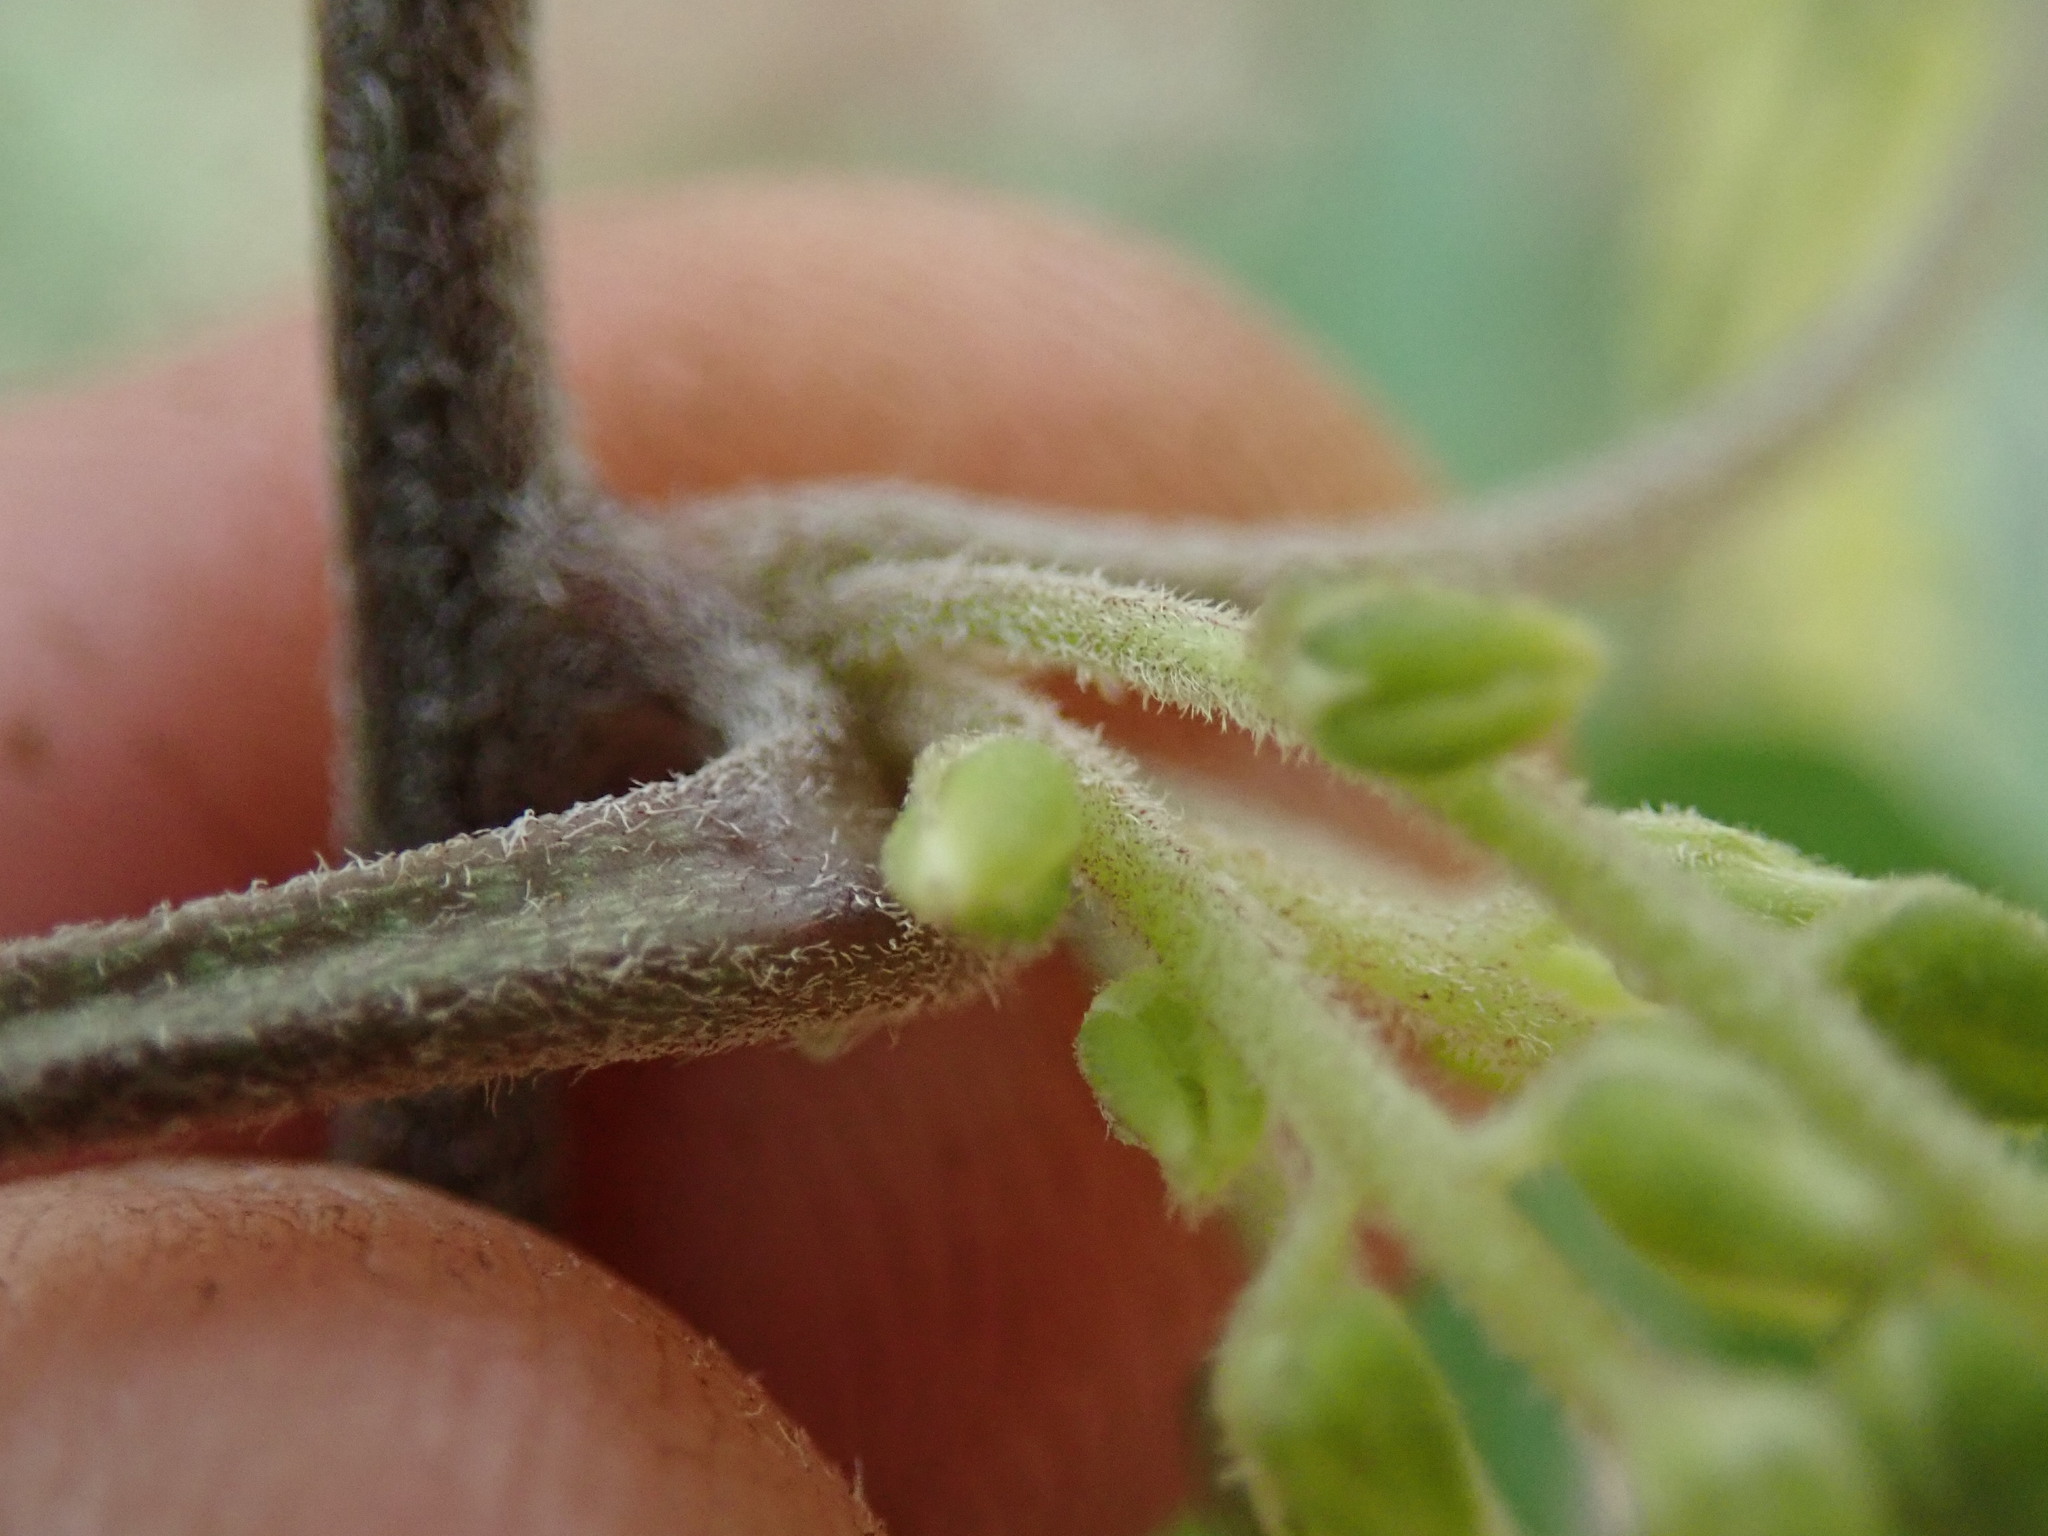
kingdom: Plantae
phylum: Tracheophyta
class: Liliopsida
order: Dioscoreales
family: Dioscoreaceae
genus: Dioscorea
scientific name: Dioscorea retusa
